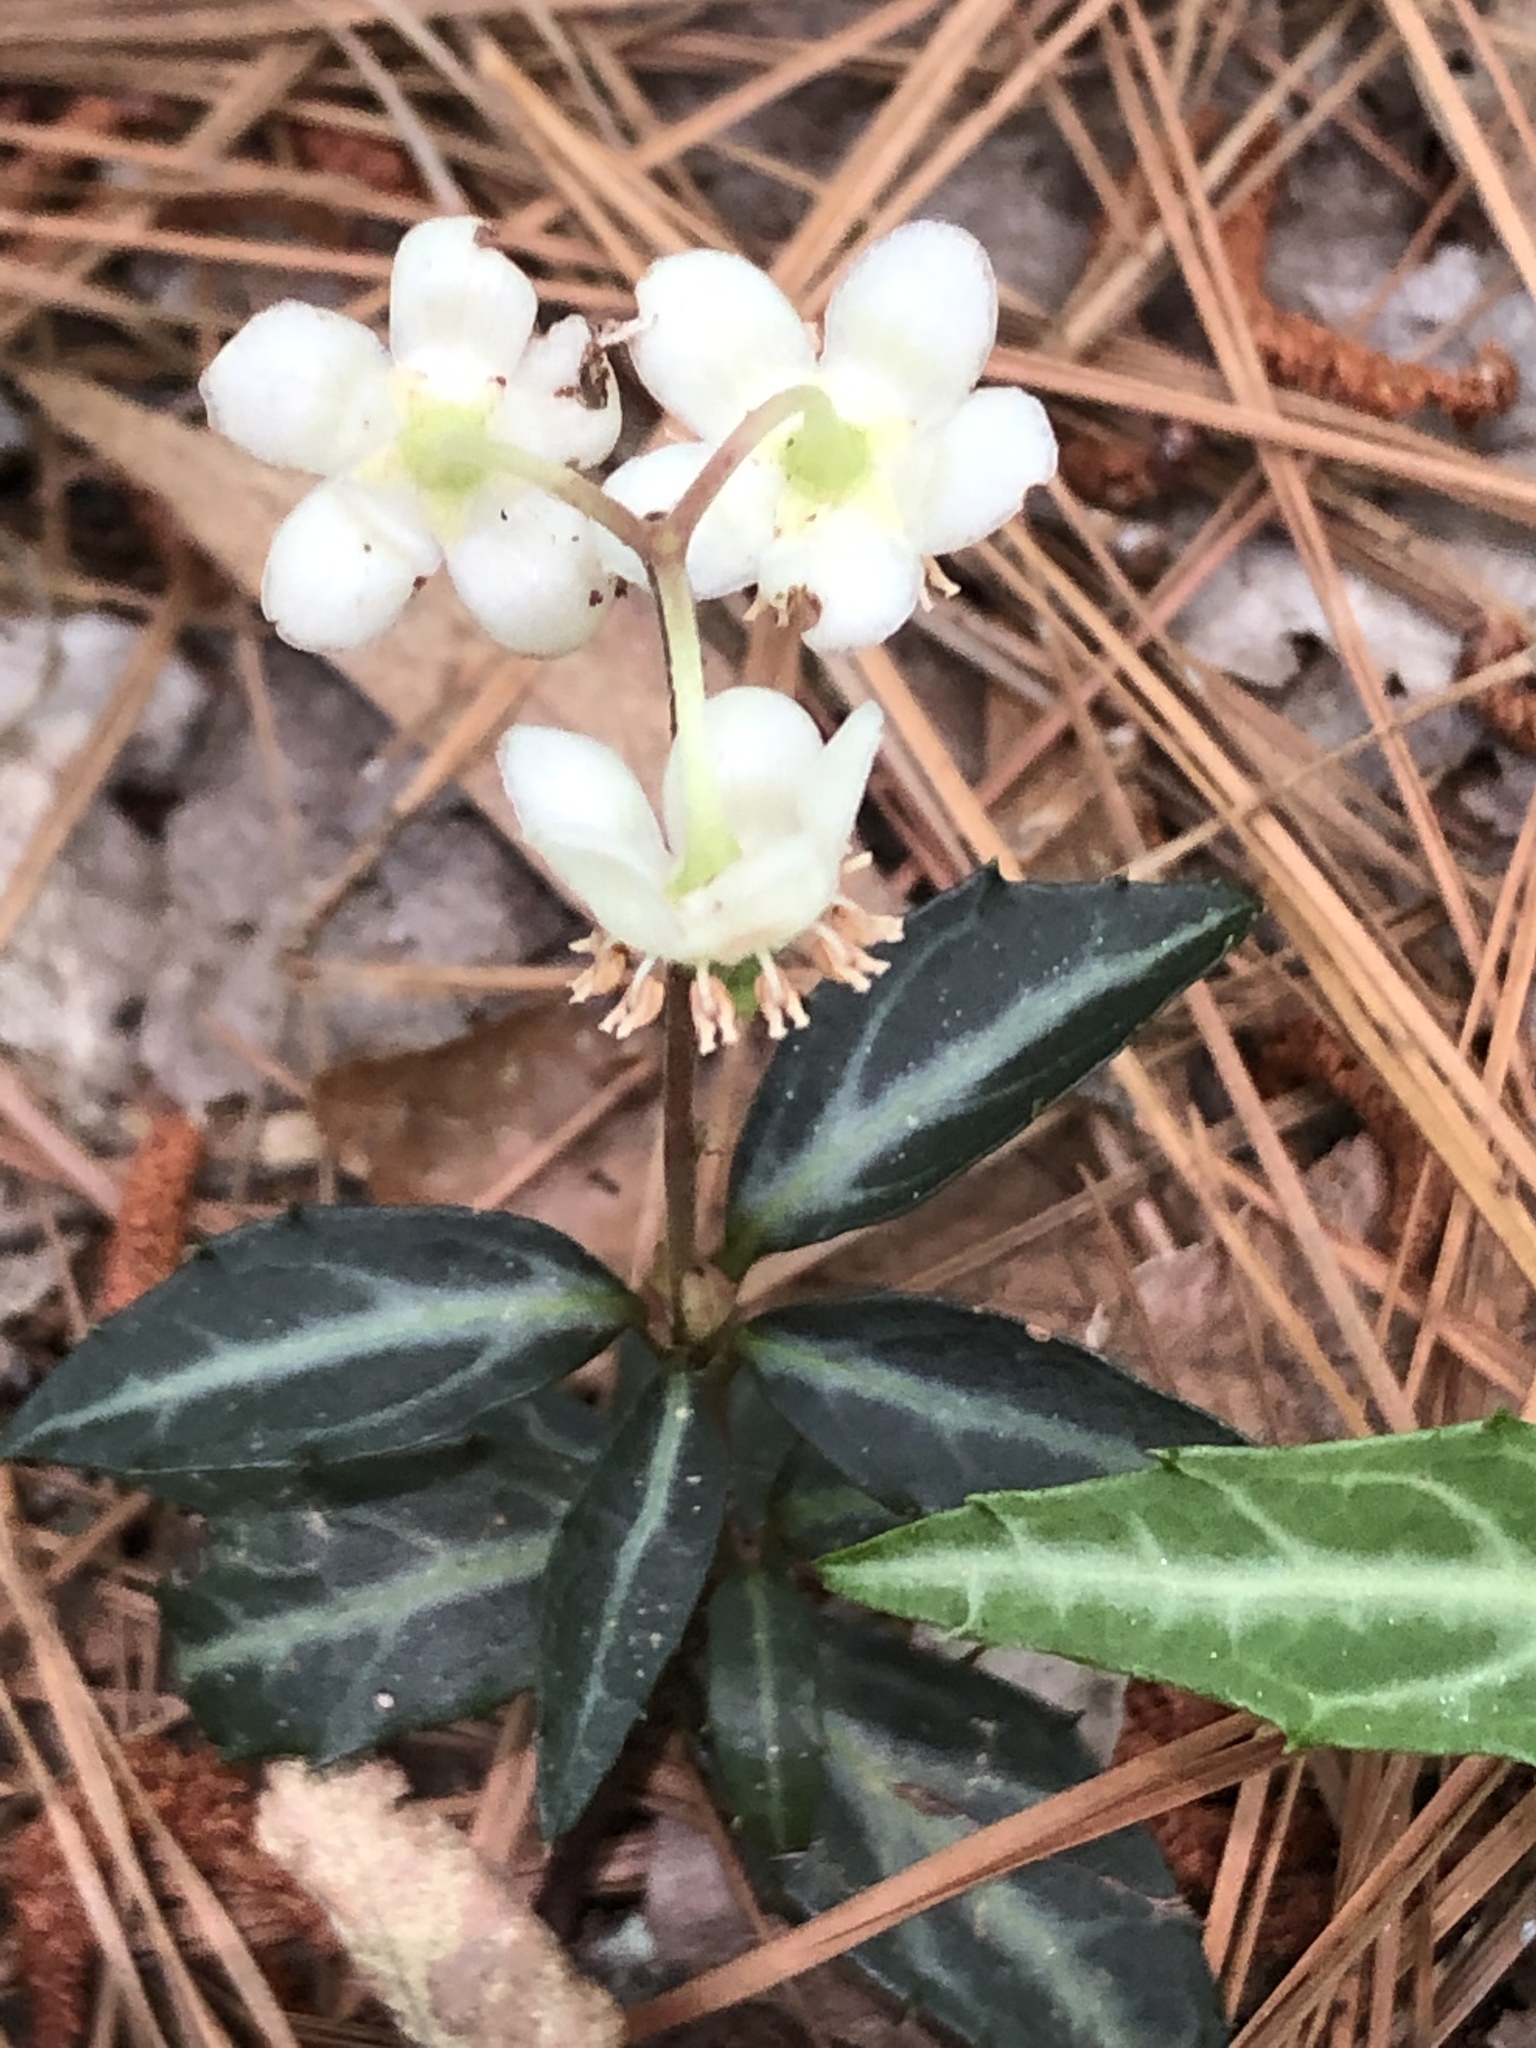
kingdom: Plantae
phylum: Tracheophyta
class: Magnoliopsida
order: Ericales
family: Ericaceae
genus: Chimaphila
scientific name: Chimaphila maculata
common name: Spotted pipsissewa
